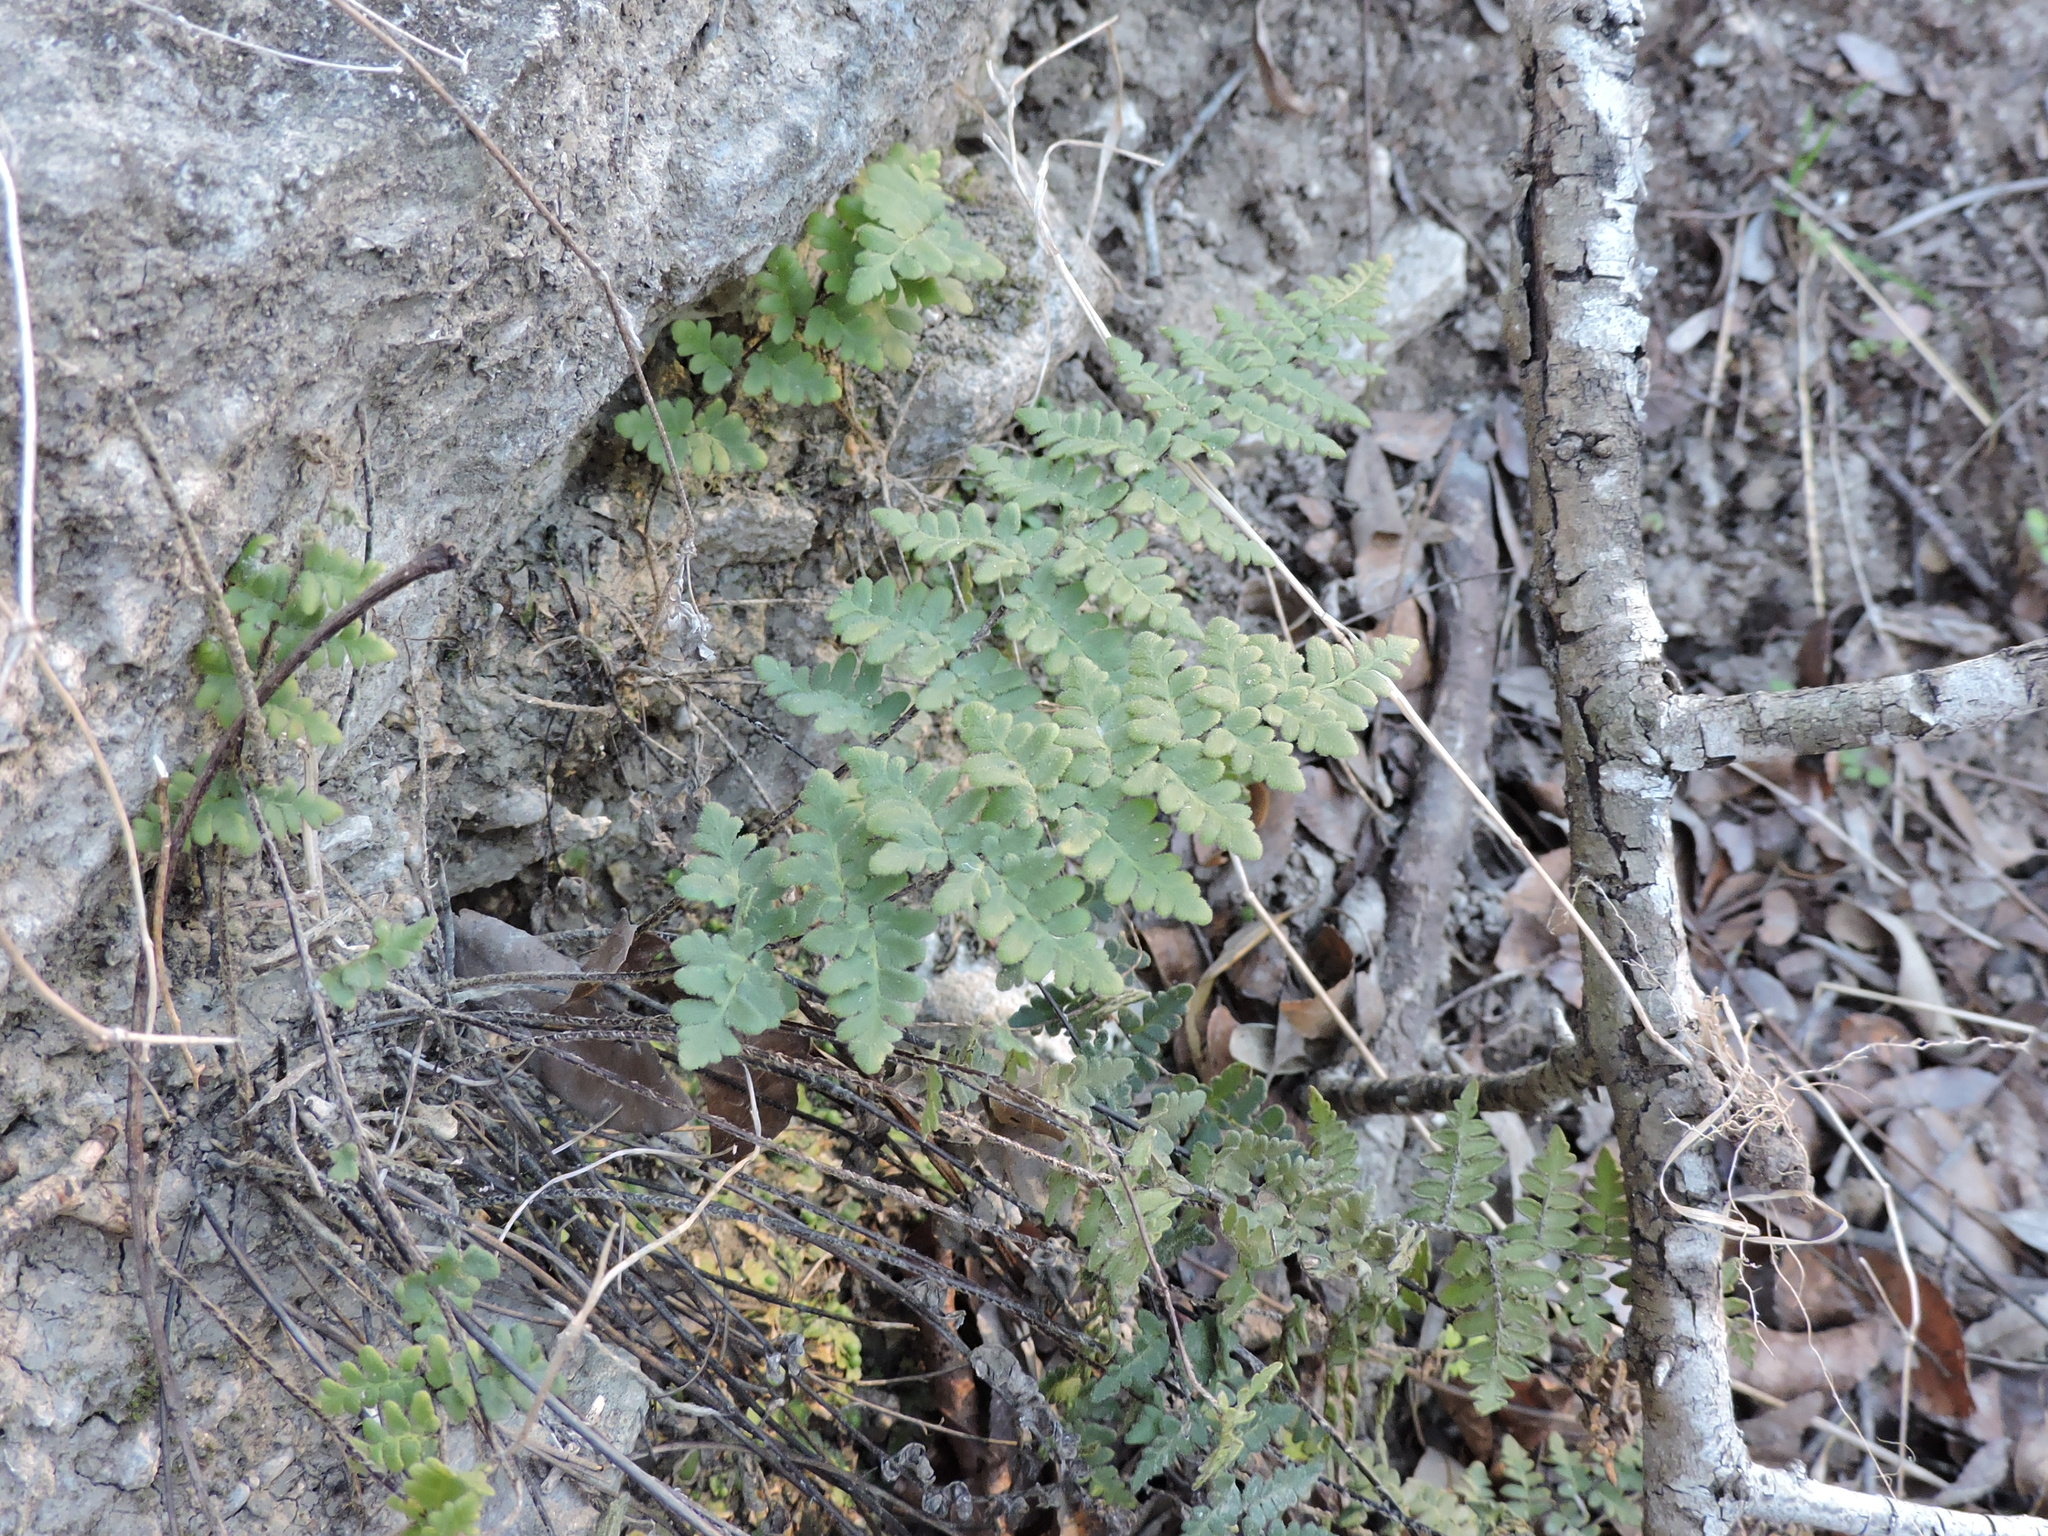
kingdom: Plantae
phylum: Tracheophyta
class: Polypodiopsida
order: Polypodiales
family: Pteridaceae
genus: Myriopteris
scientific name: Myriopteris scabra
